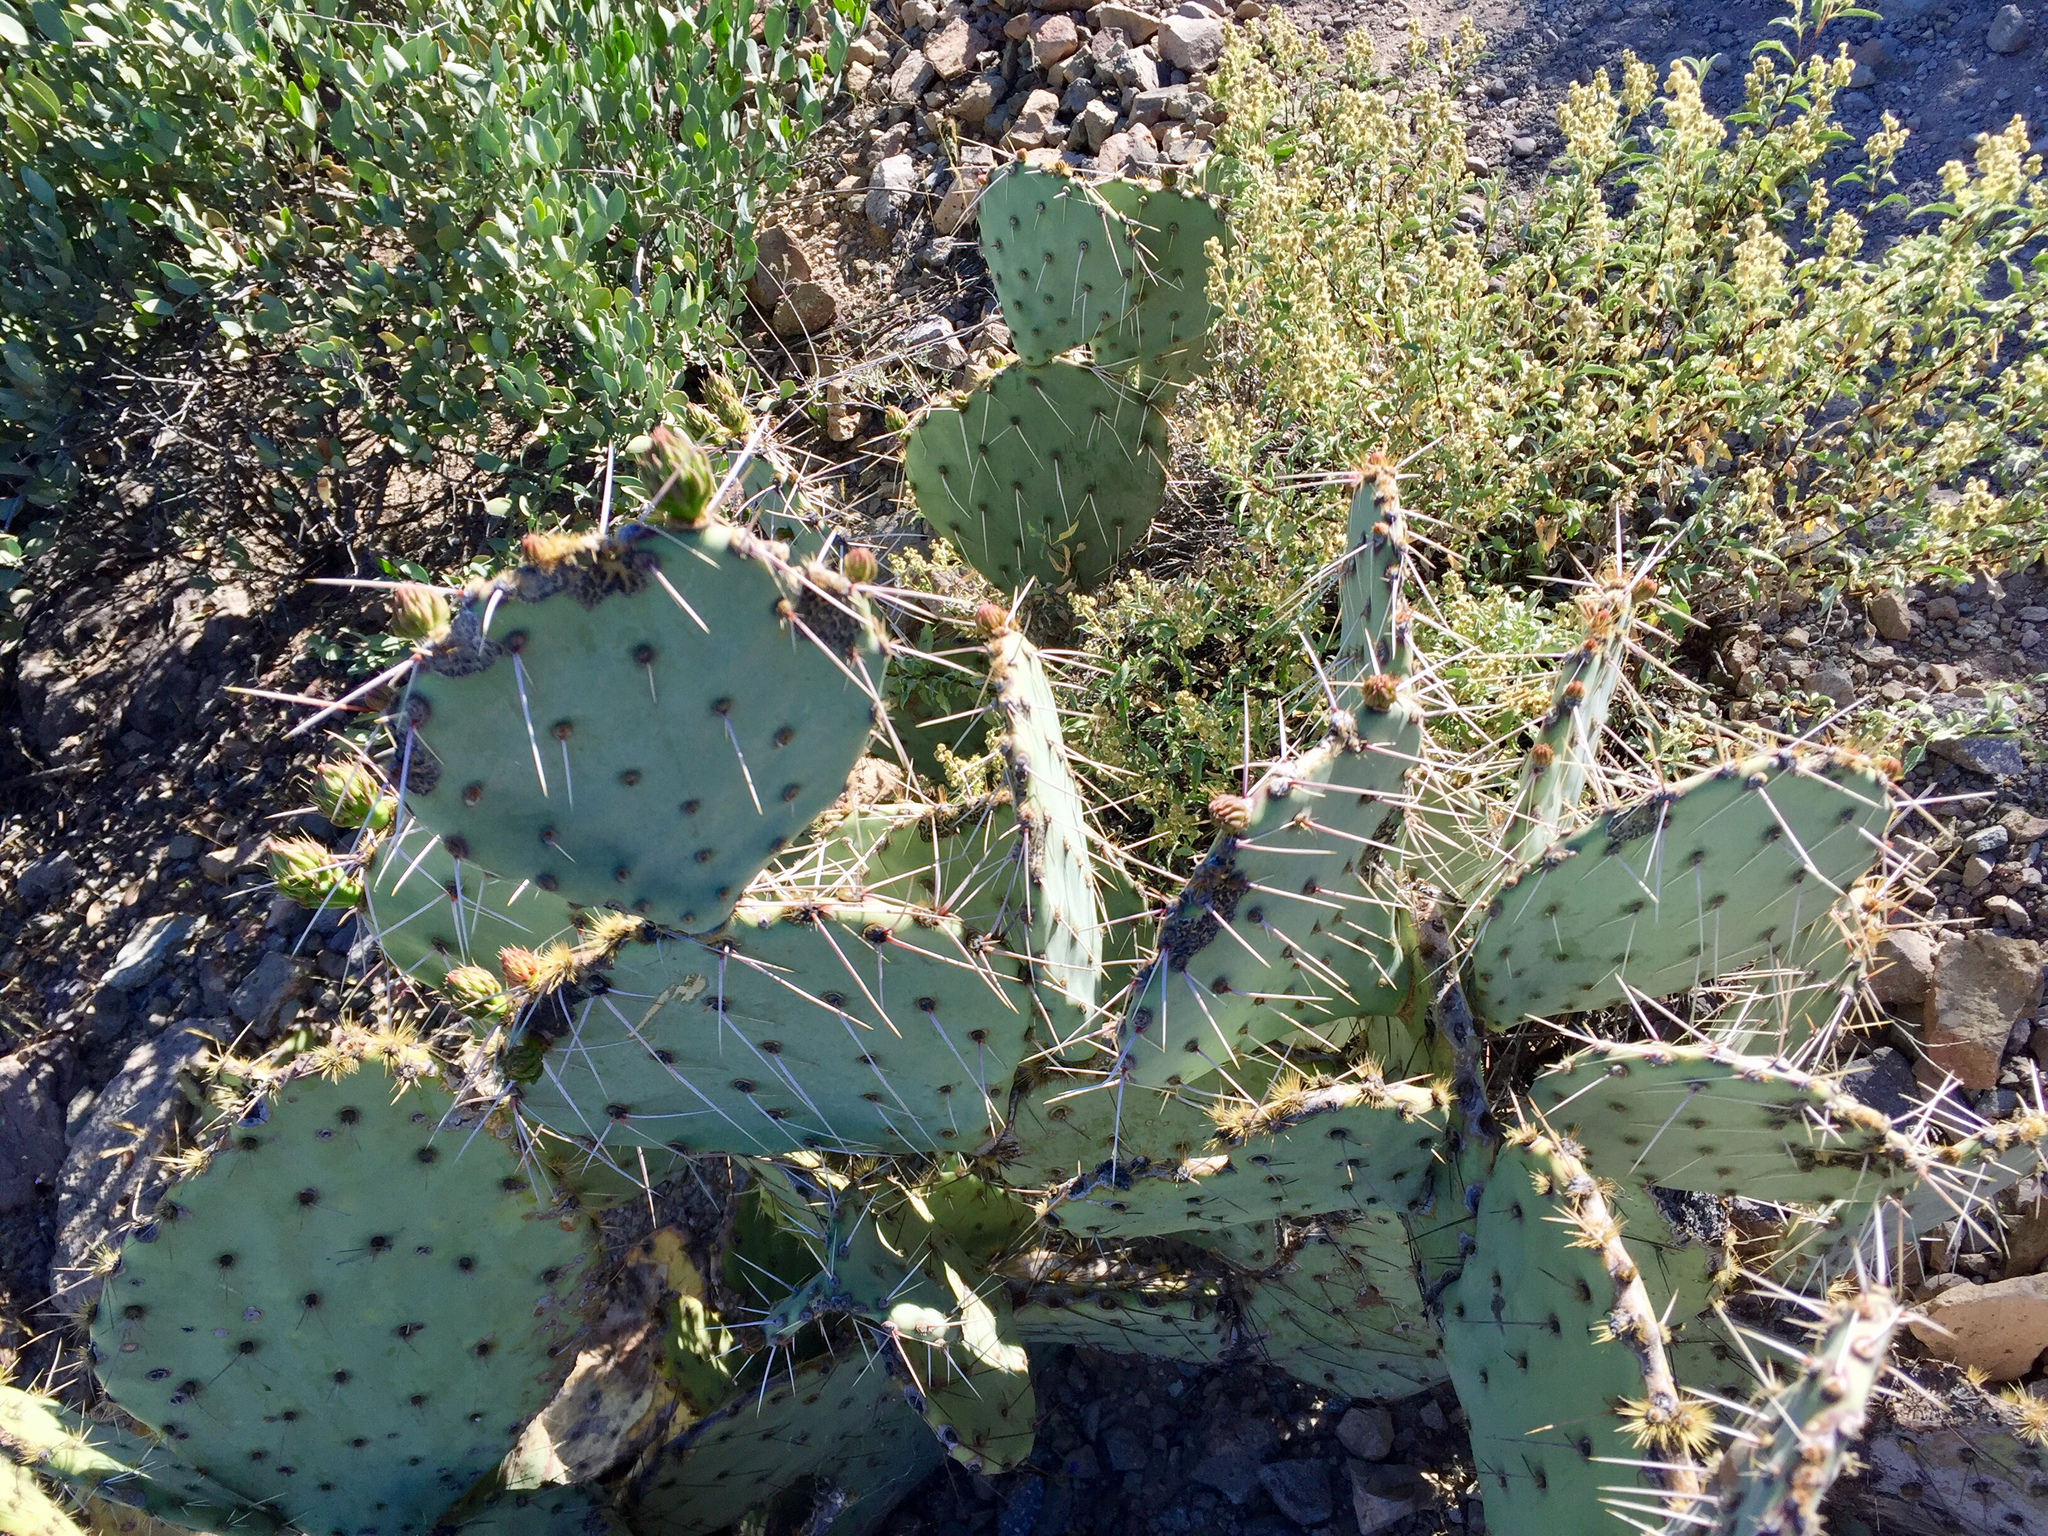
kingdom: Plantae
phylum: Tracheophyta
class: Magnoliopsida
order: Caryophyllales
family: Cactaceae
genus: Opuntia
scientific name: Opuntia engelmannii
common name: Cactus-apple
